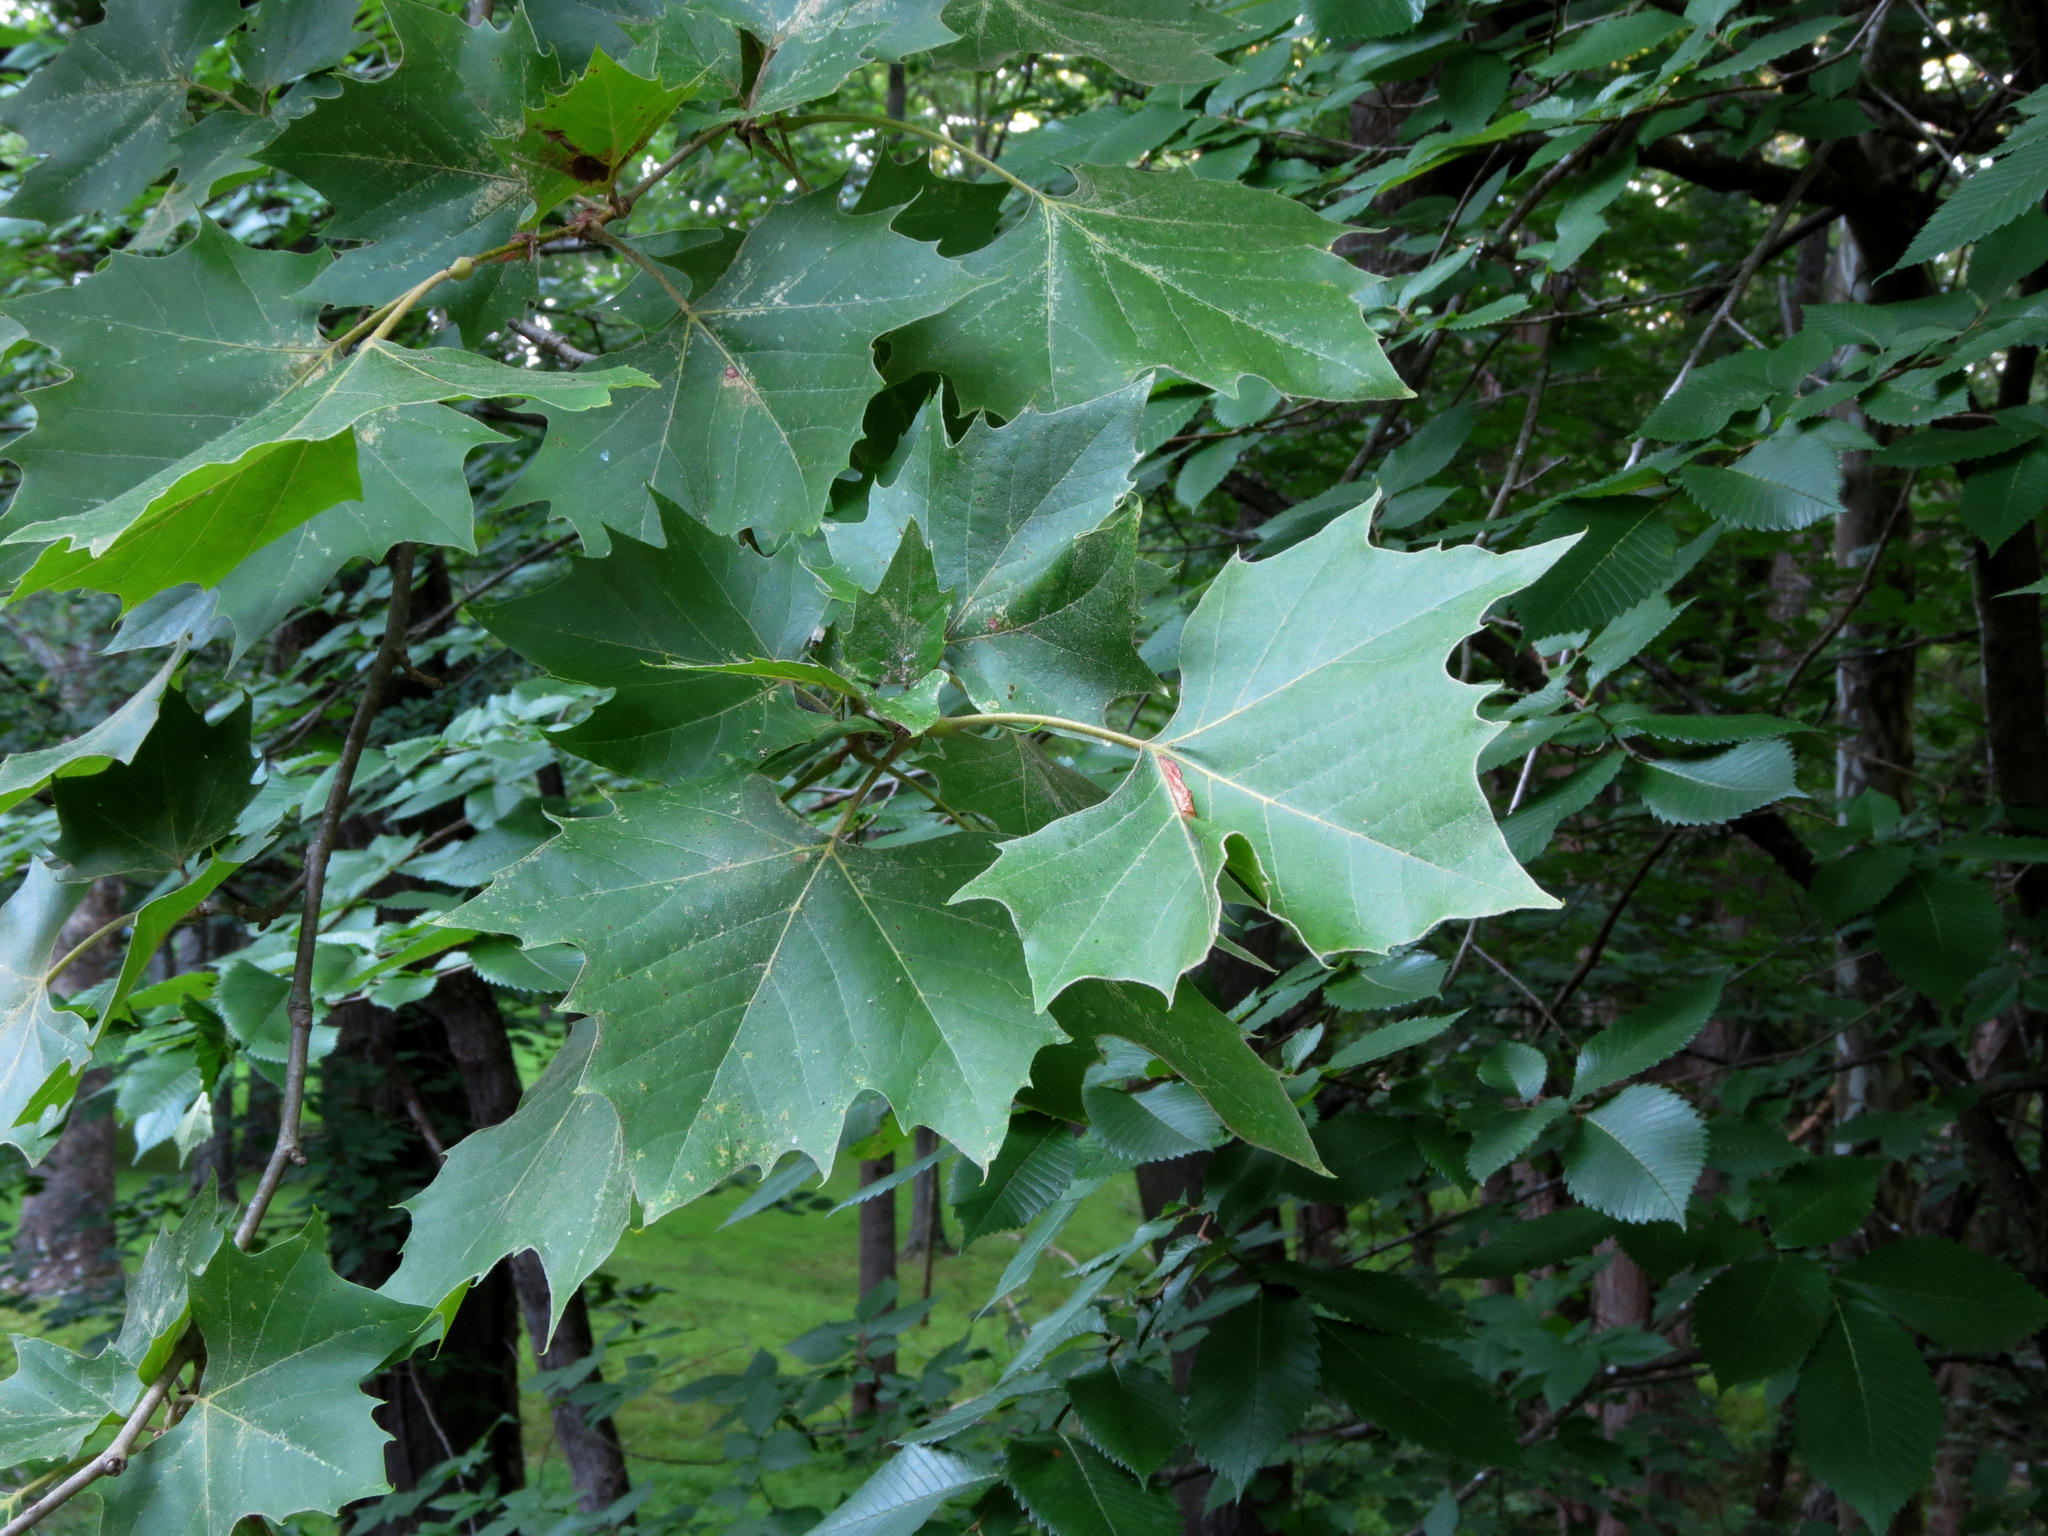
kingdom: Plantae
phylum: Tracheophyta
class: Magnoliopsida
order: Proteales
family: Platanaceae
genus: Platanus
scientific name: Platanus occidentalis
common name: American sycamore
